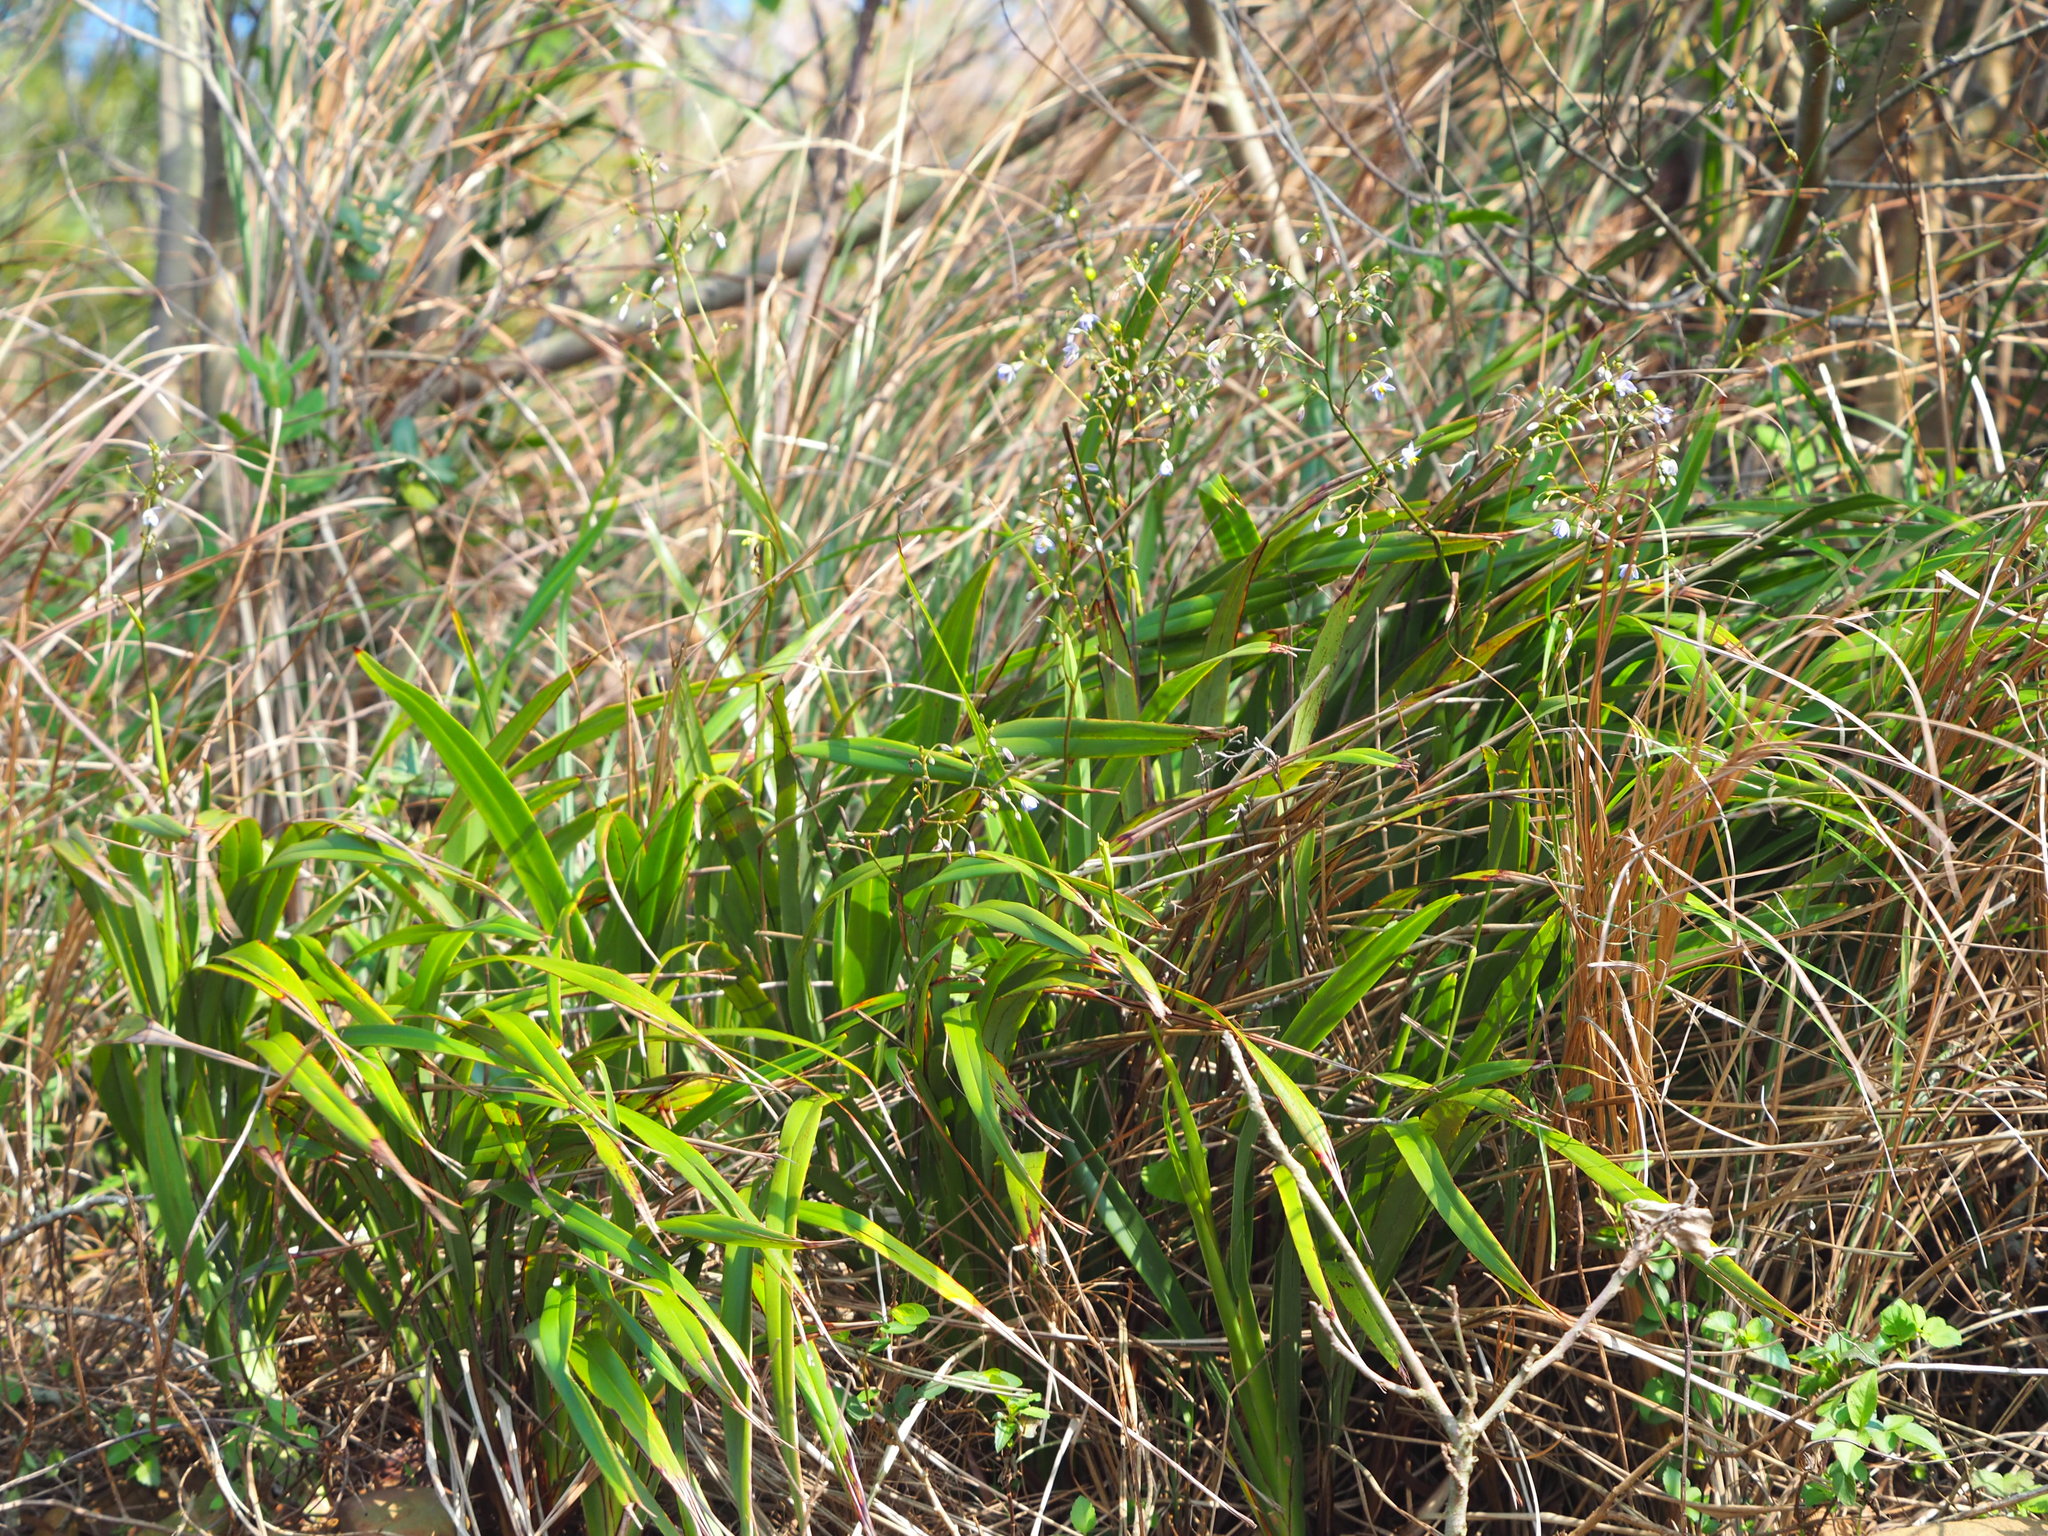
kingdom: Plantae
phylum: Tracheophyta
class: Liliopsida
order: Asparagales
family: Asphodelaceae
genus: Dianella
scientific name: Dianella ensifolia
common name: New zealand lilyplant
